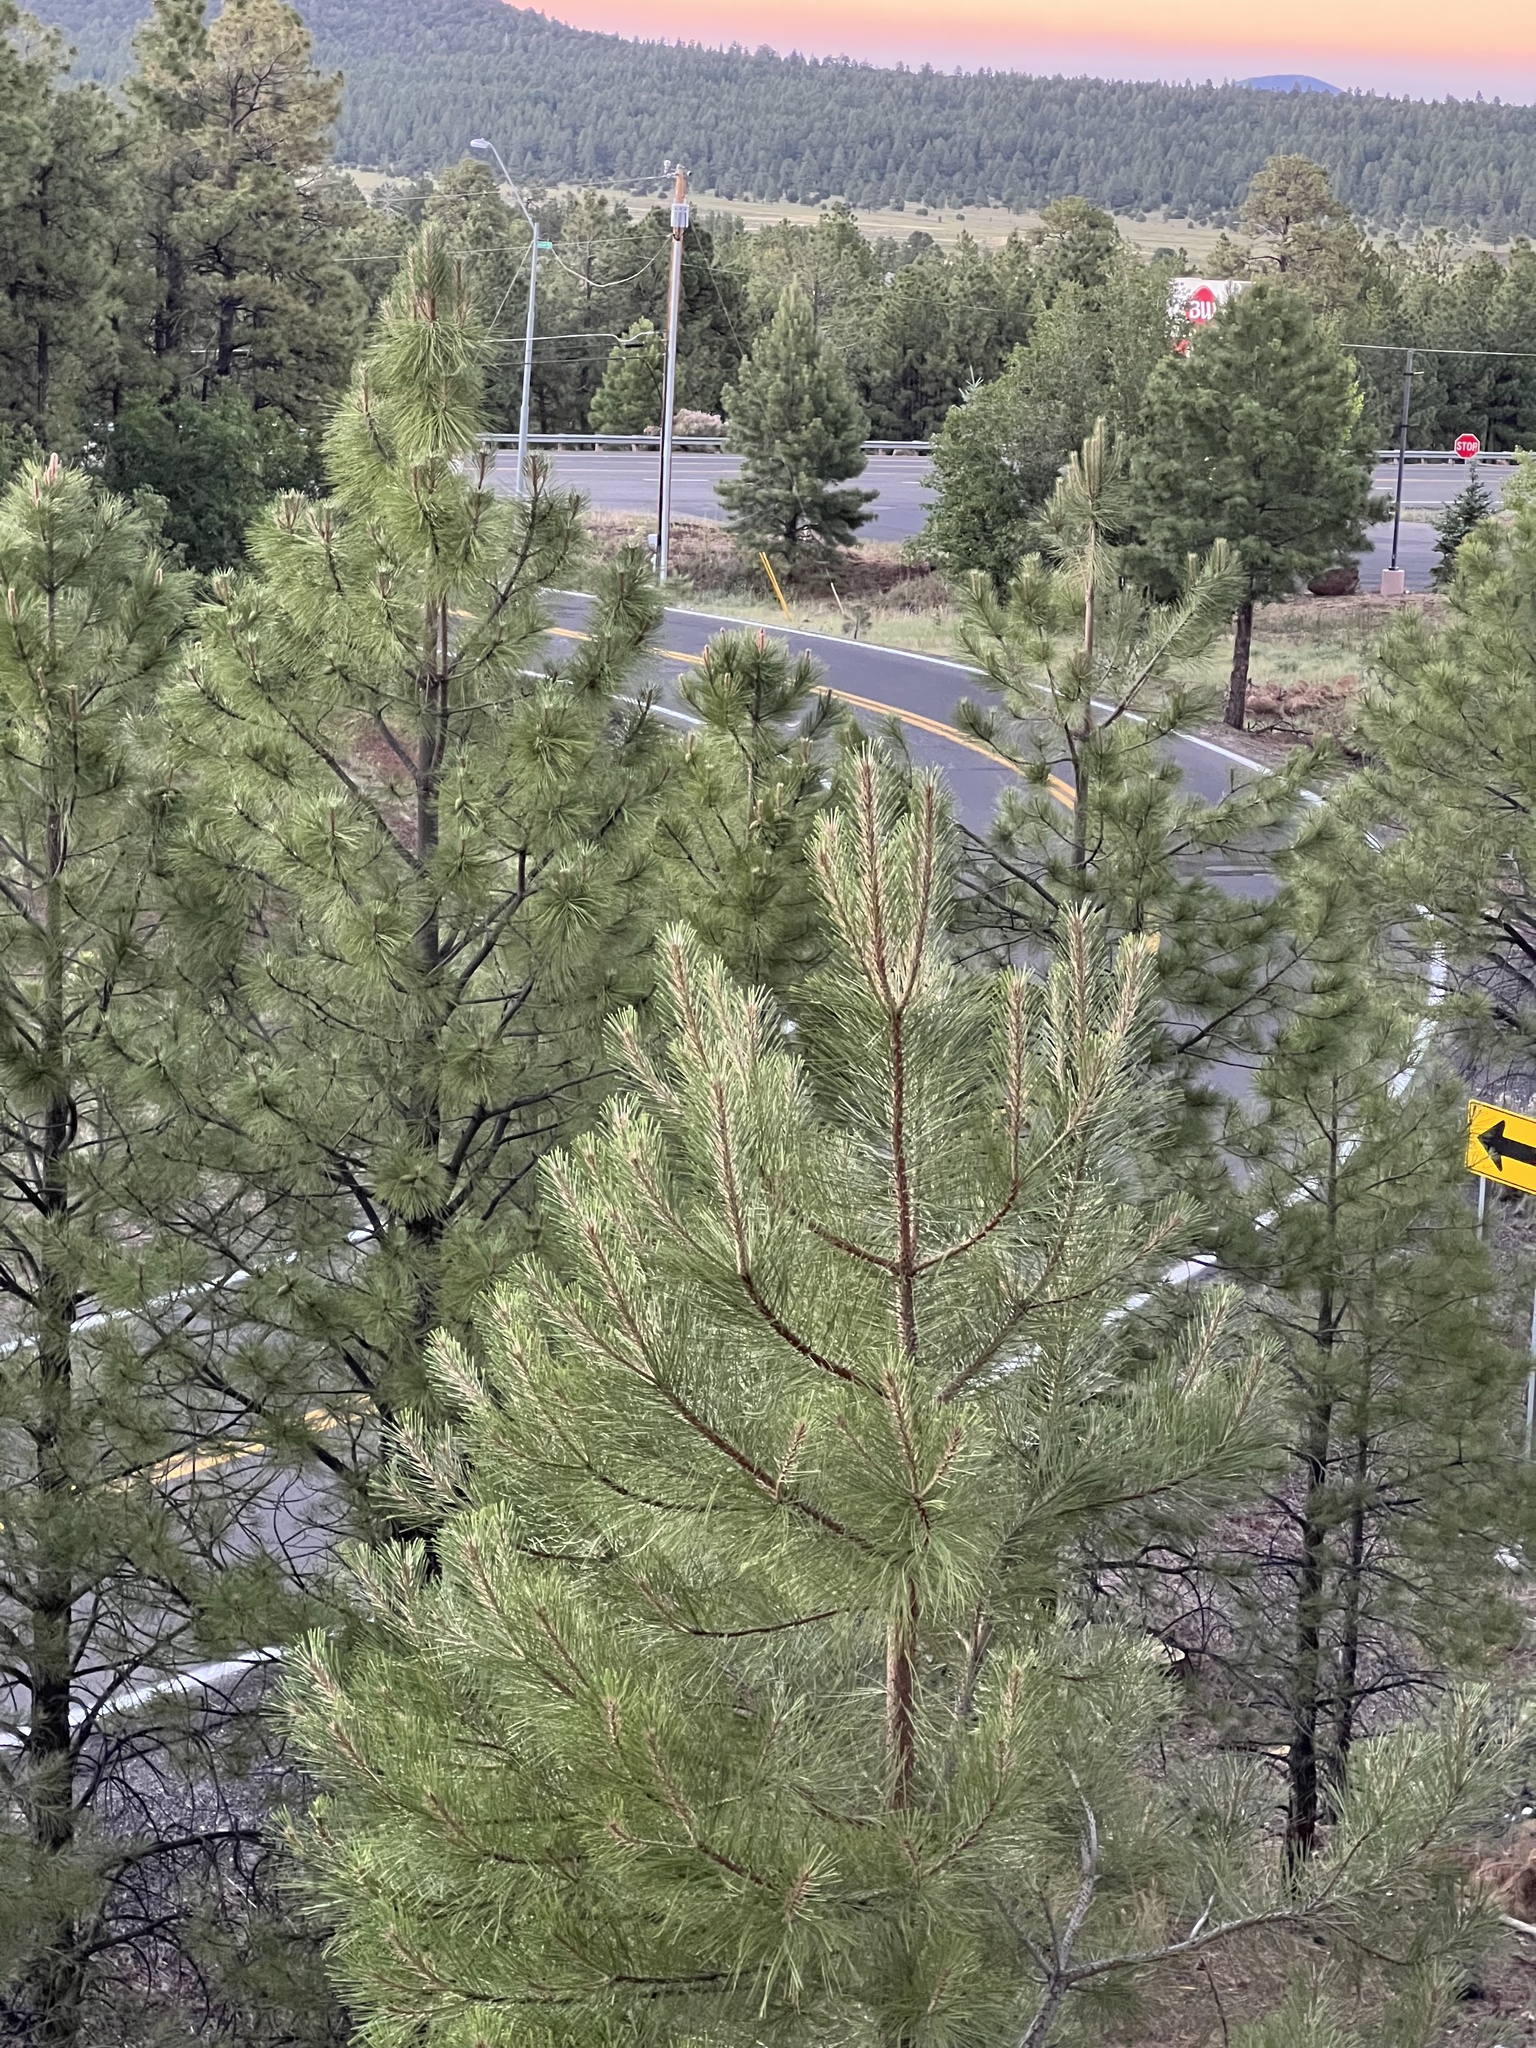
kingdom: Plantae
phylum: Tracheophyta
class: Pinopsida
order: Pinales
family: Pinaceae
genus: Pinus
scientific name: Pinus ponderosa
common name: Western yellow-pine
